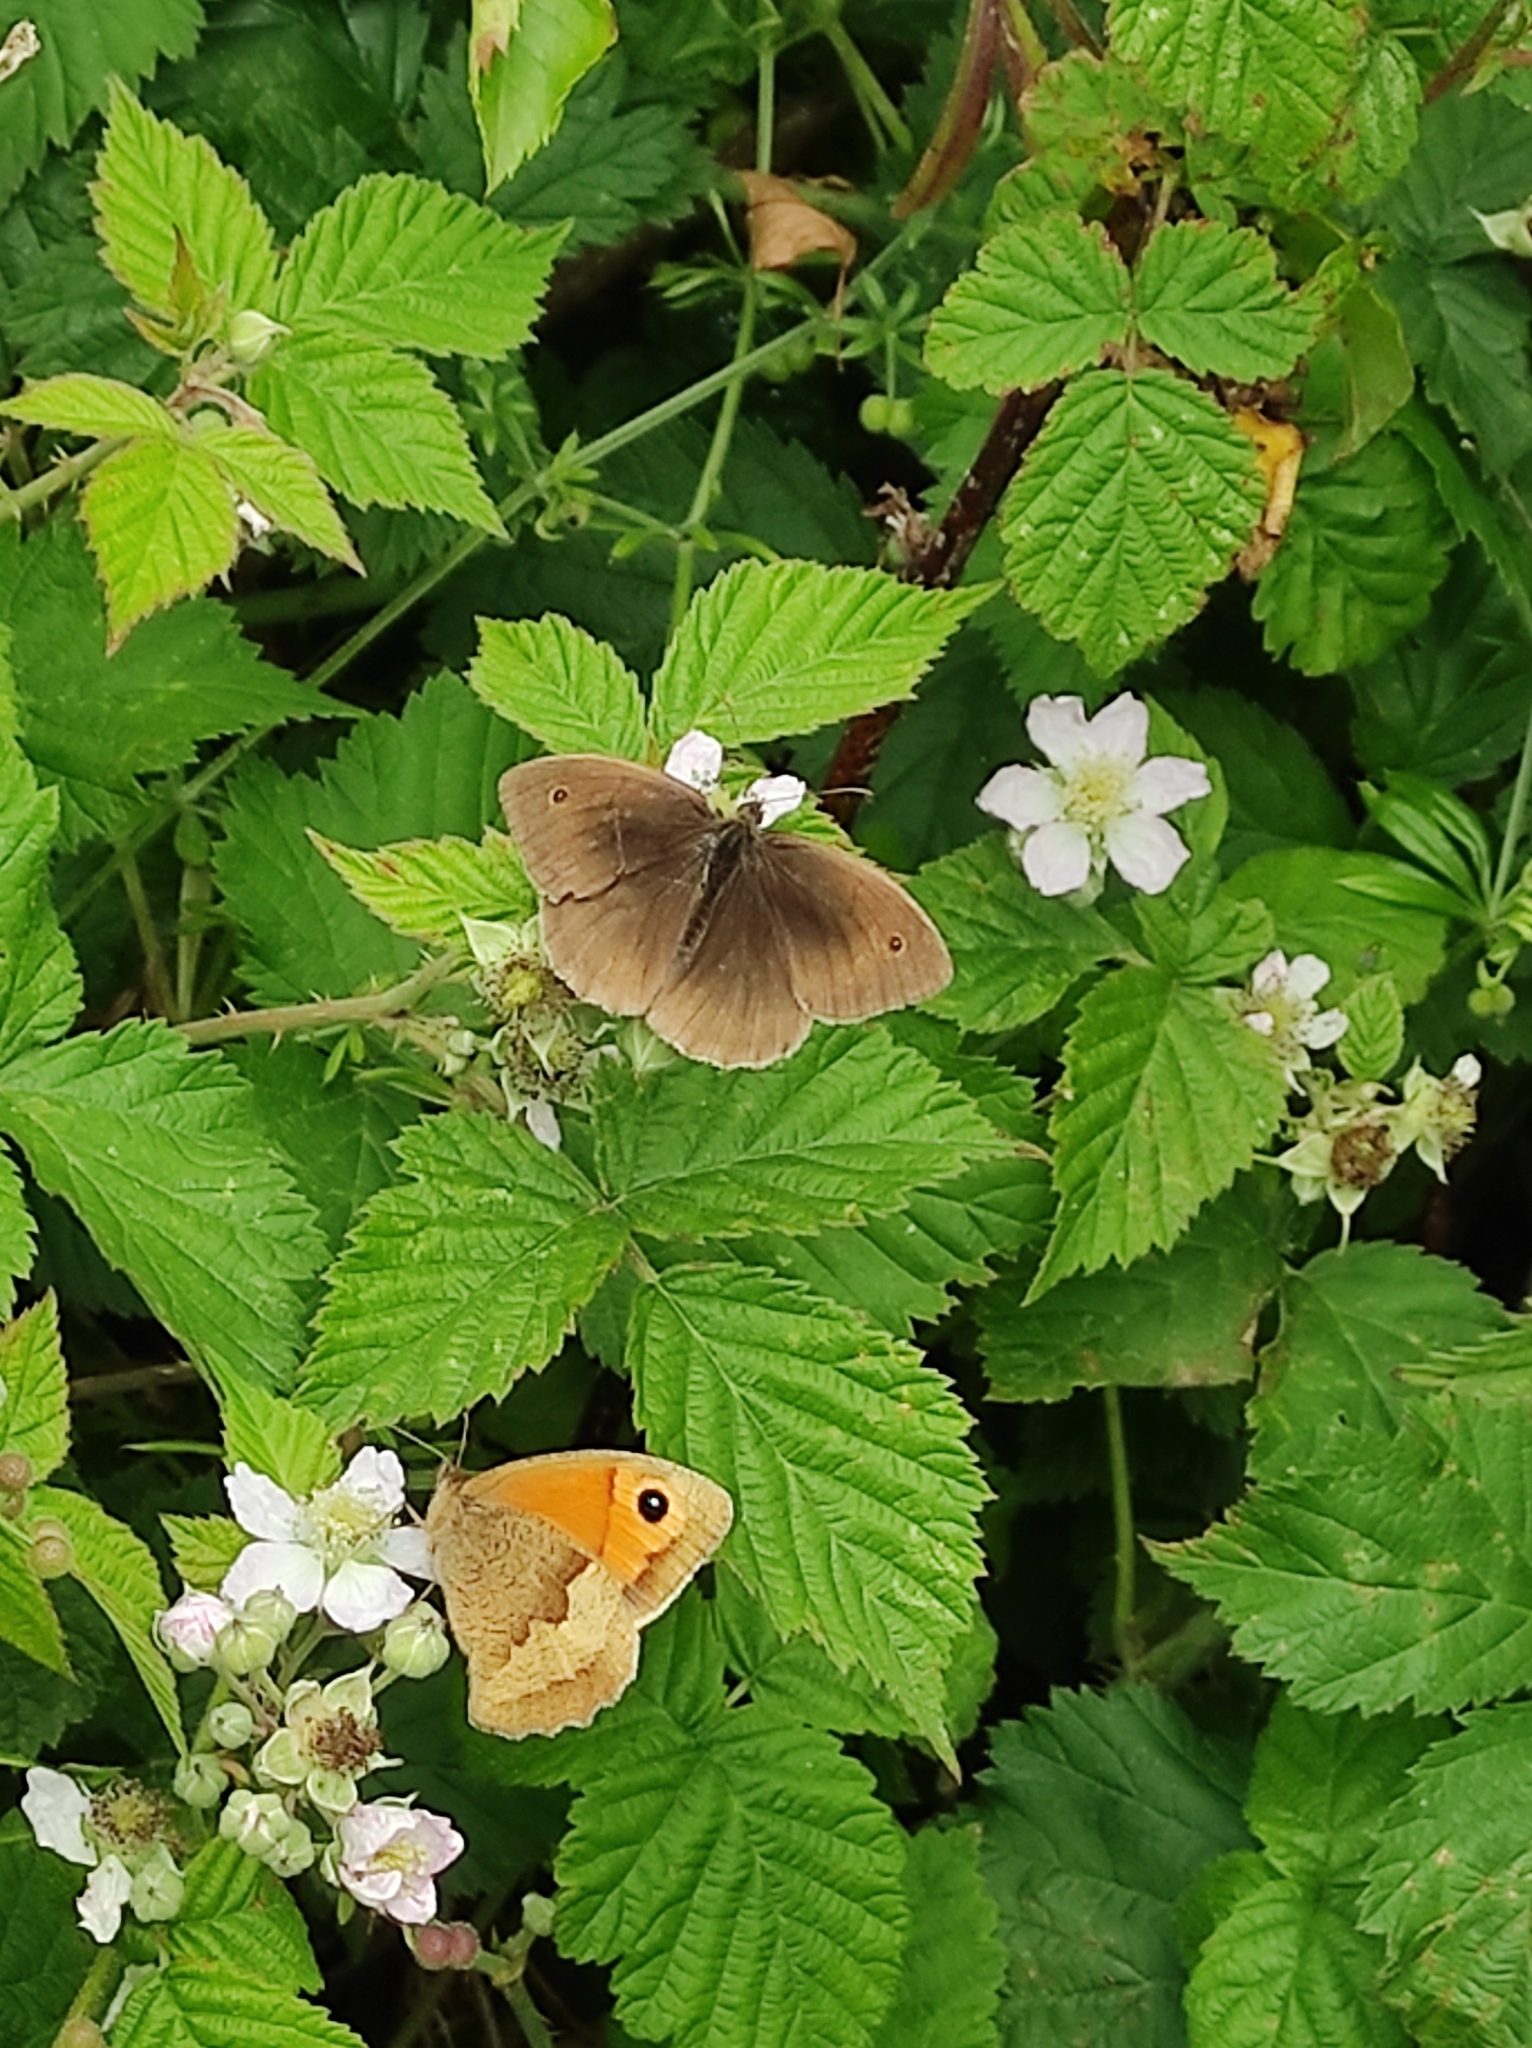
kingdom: Animalia
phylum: Arthropoda
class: Insecta
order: Lepidoptera
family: Nymphalidae
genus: Maniola
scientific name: Maniola jurtina
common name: Meadow brown
